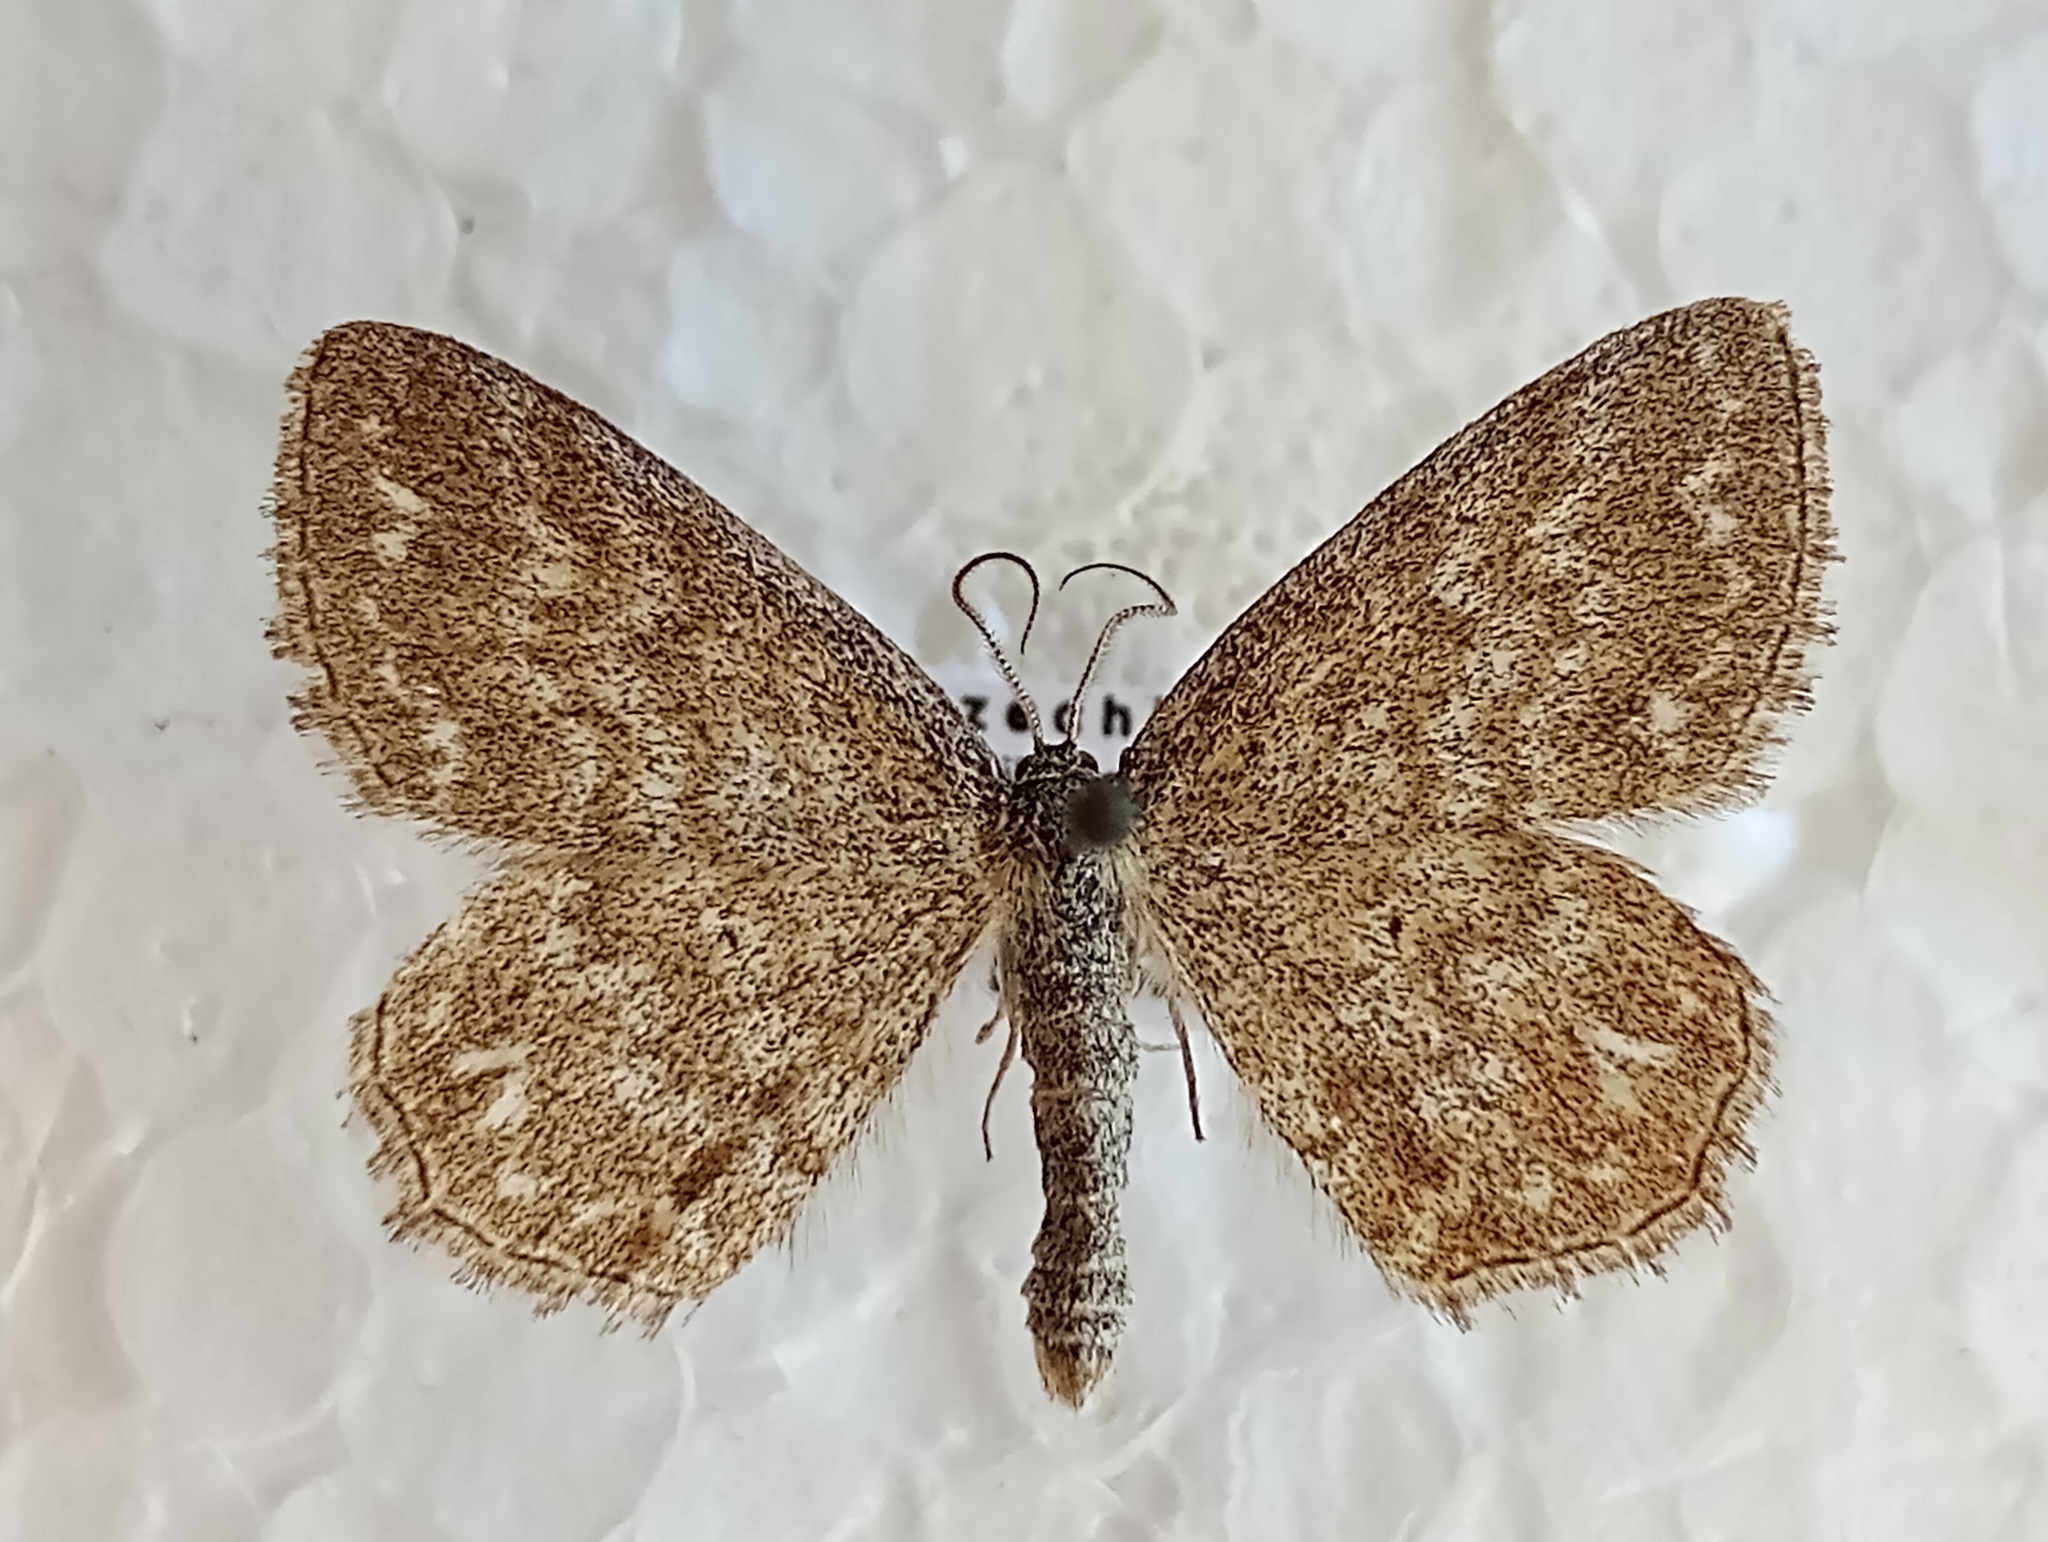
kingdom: Animalia
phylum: Arthropoda
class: Insecta
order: Lepidoptera
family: Geometridae
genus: Scopula
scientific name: Scopula immorata
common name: Lewes wave
